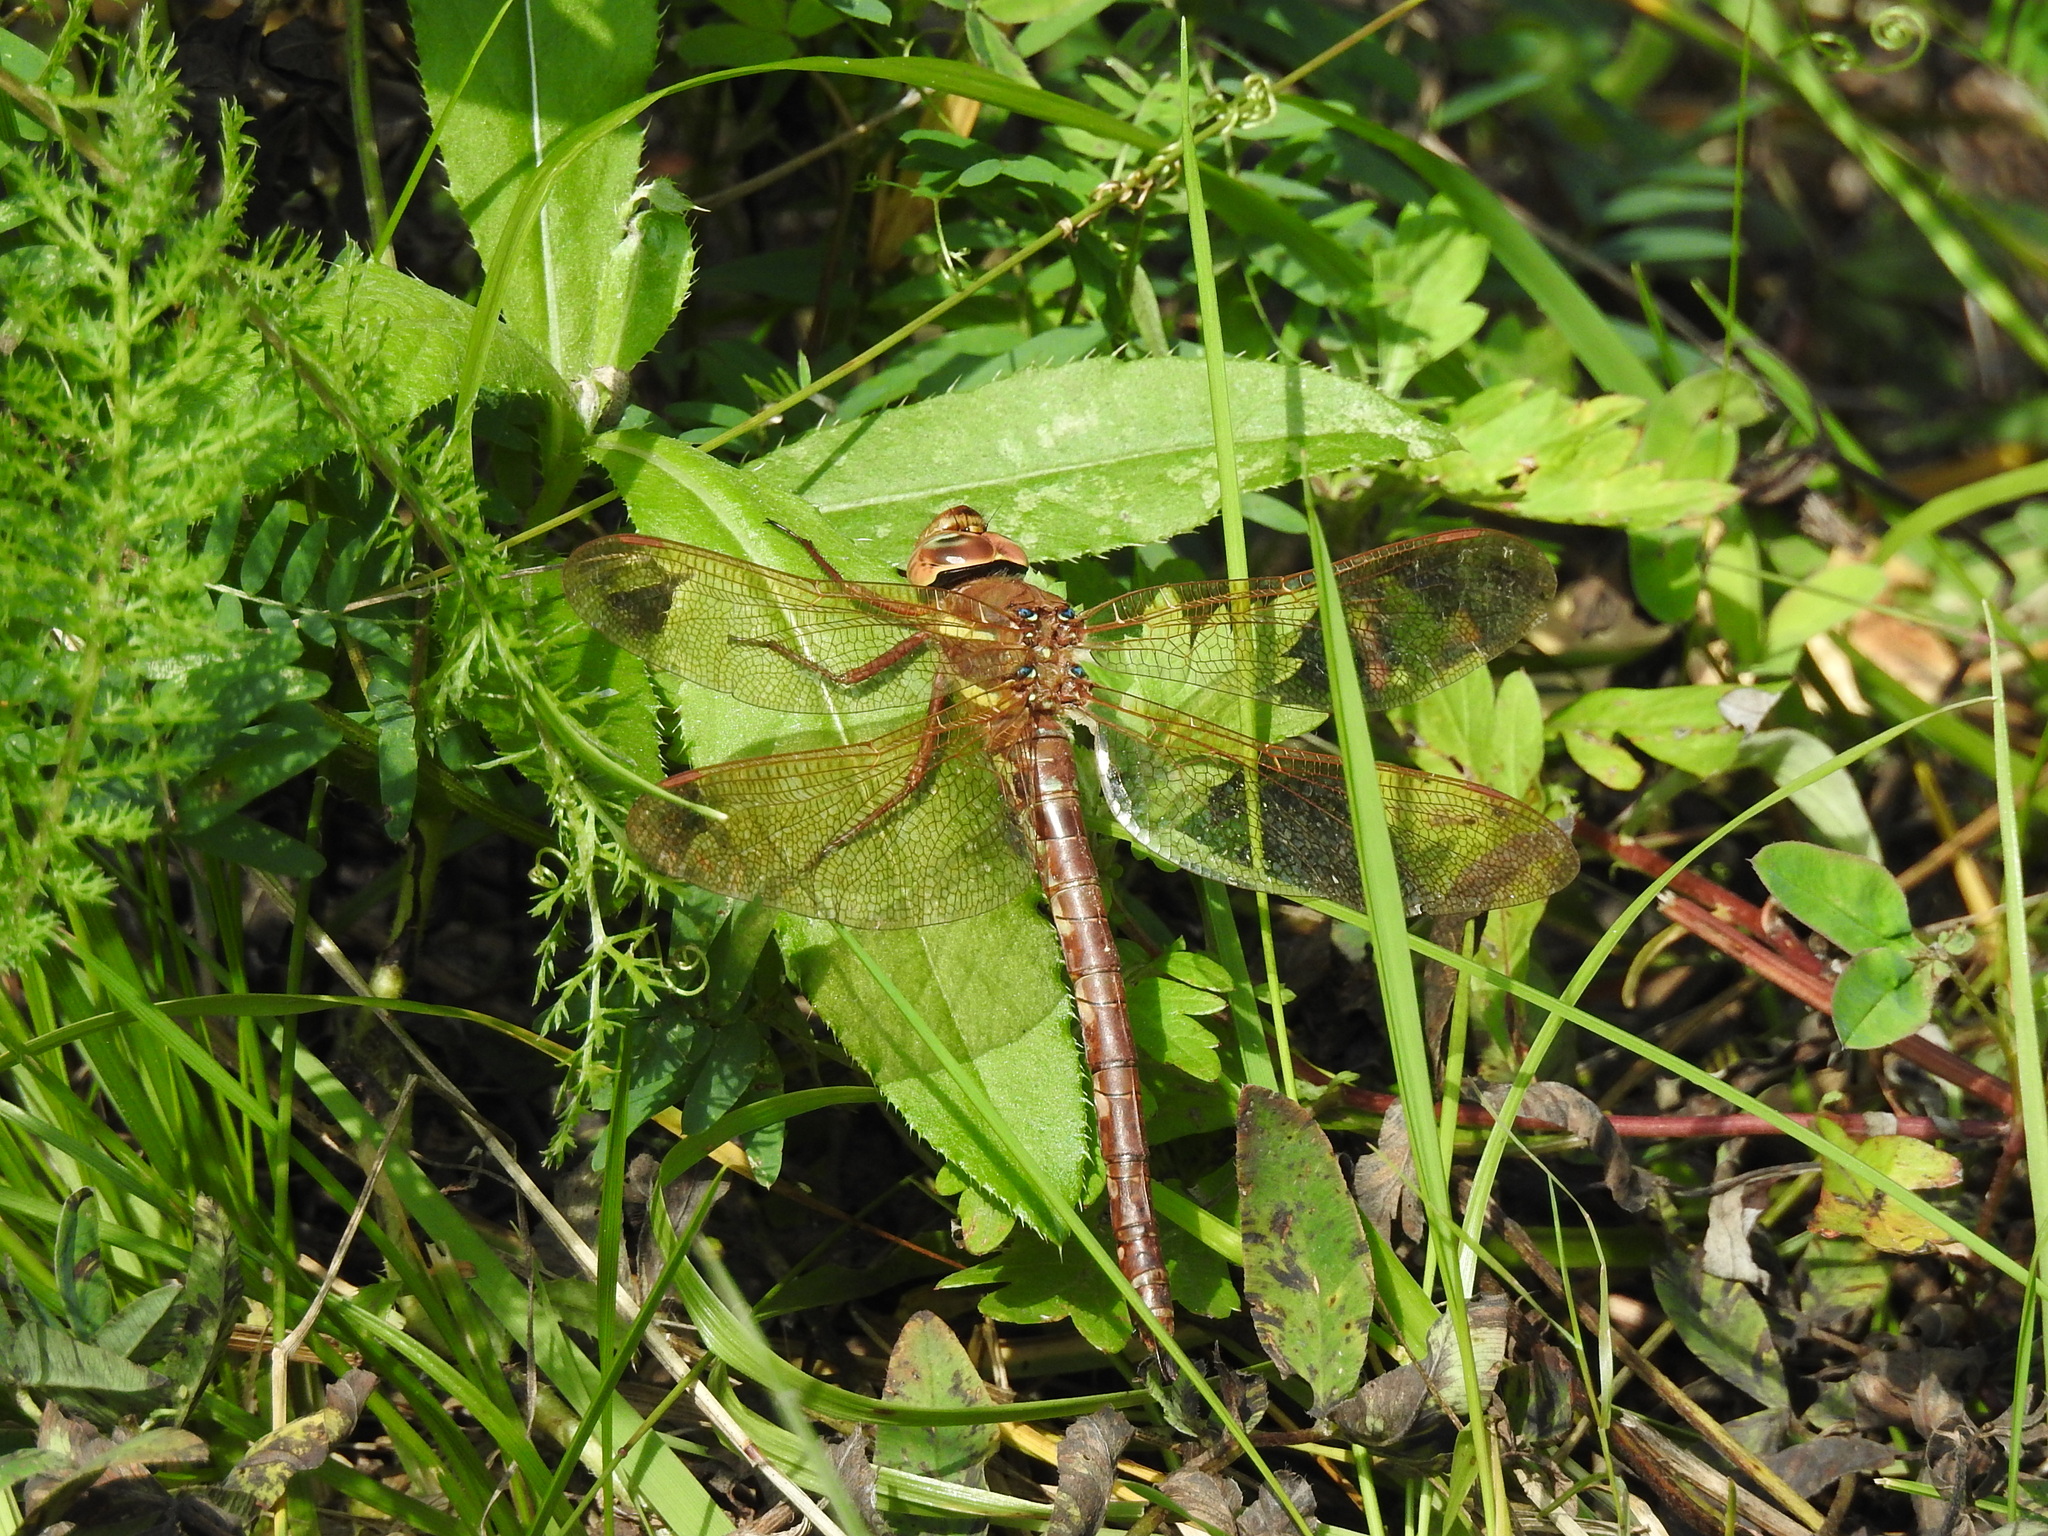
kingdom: Animalia
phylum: Arthropoda
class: Insecta
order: Odonata
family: Aeshnidae
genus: Aeshna
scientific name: Aeshna grandis
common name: Brown hawker
